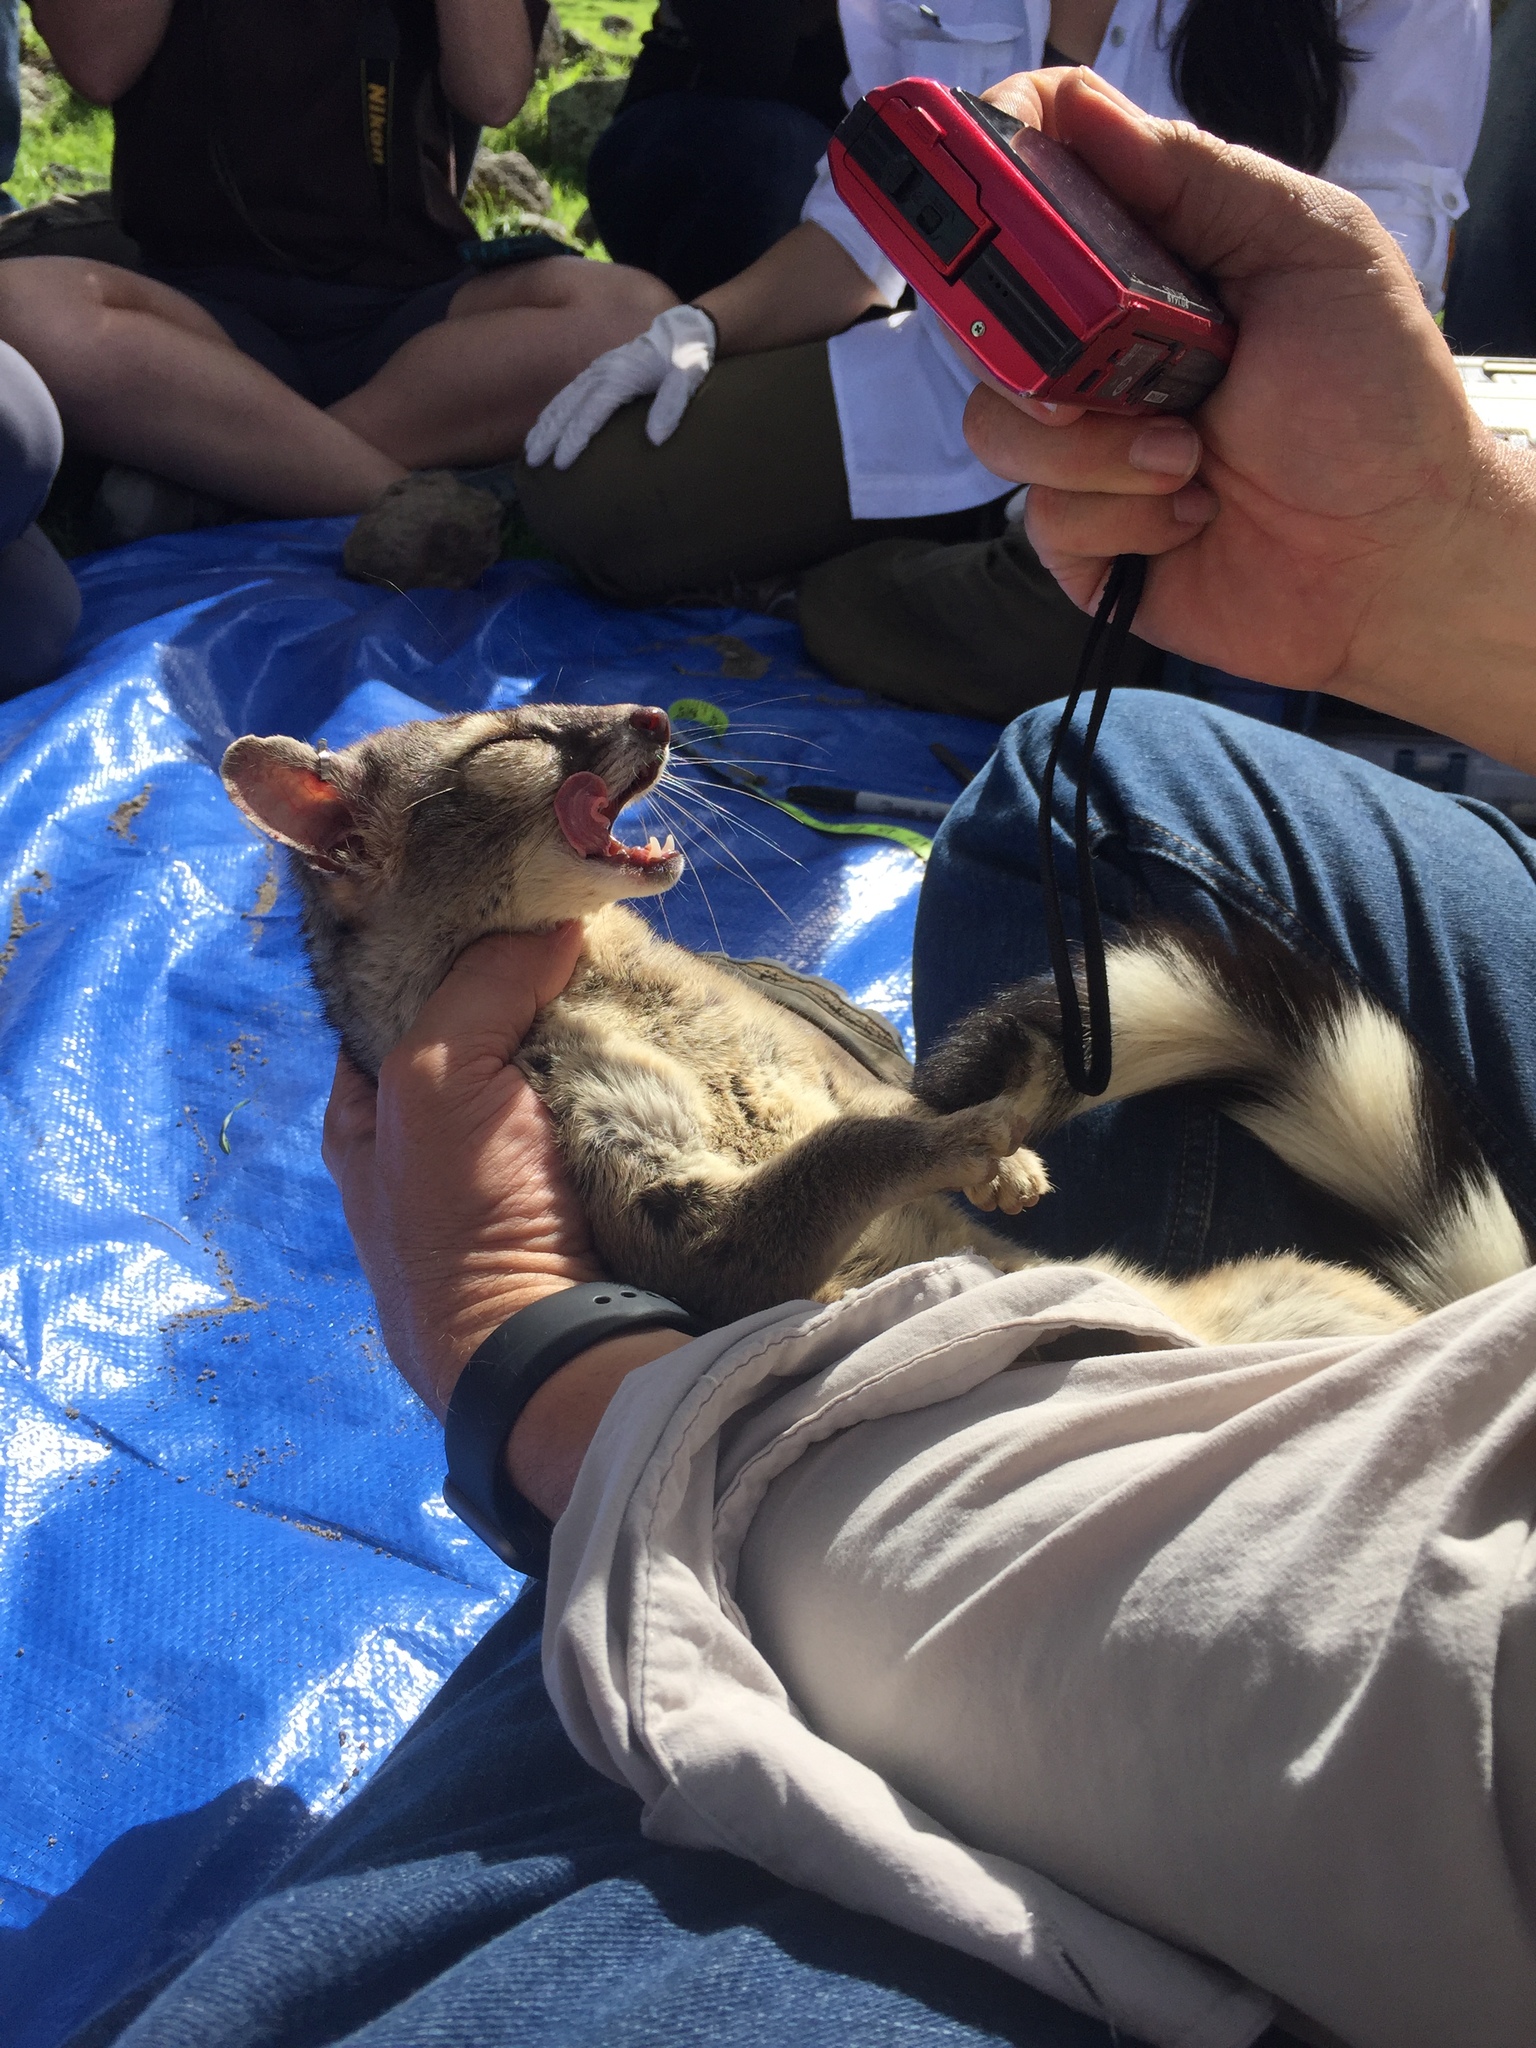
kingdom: Animalia
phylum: Chordata
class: Mammalia
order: Carnivora
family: Procyonidae
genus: Bassariscus
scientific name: Bassariscus astutus
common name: Ringtail
